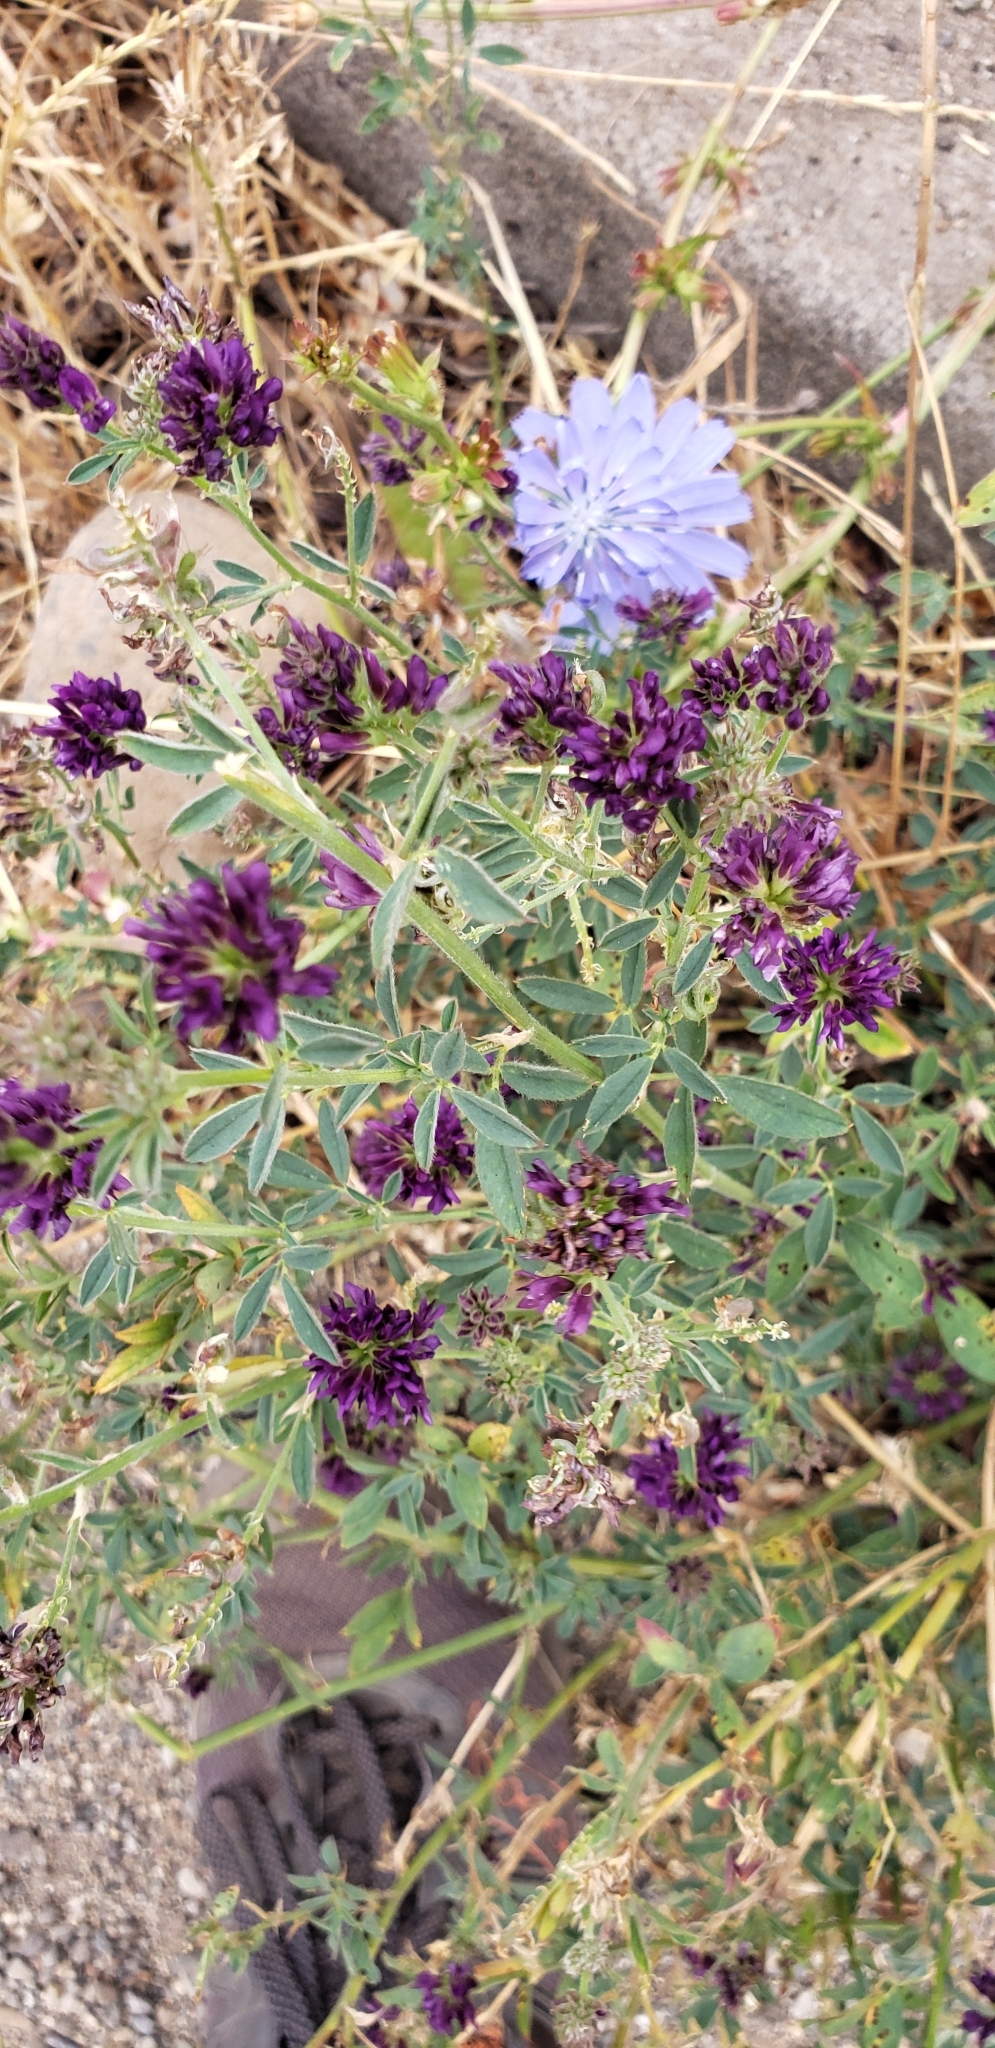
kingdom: Plantae
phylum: Tracheophyta
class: Magnoliopsida
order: Fabales
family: Fabaceae
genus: Medicago
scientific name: Medicago sativa
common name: Alfalfa
